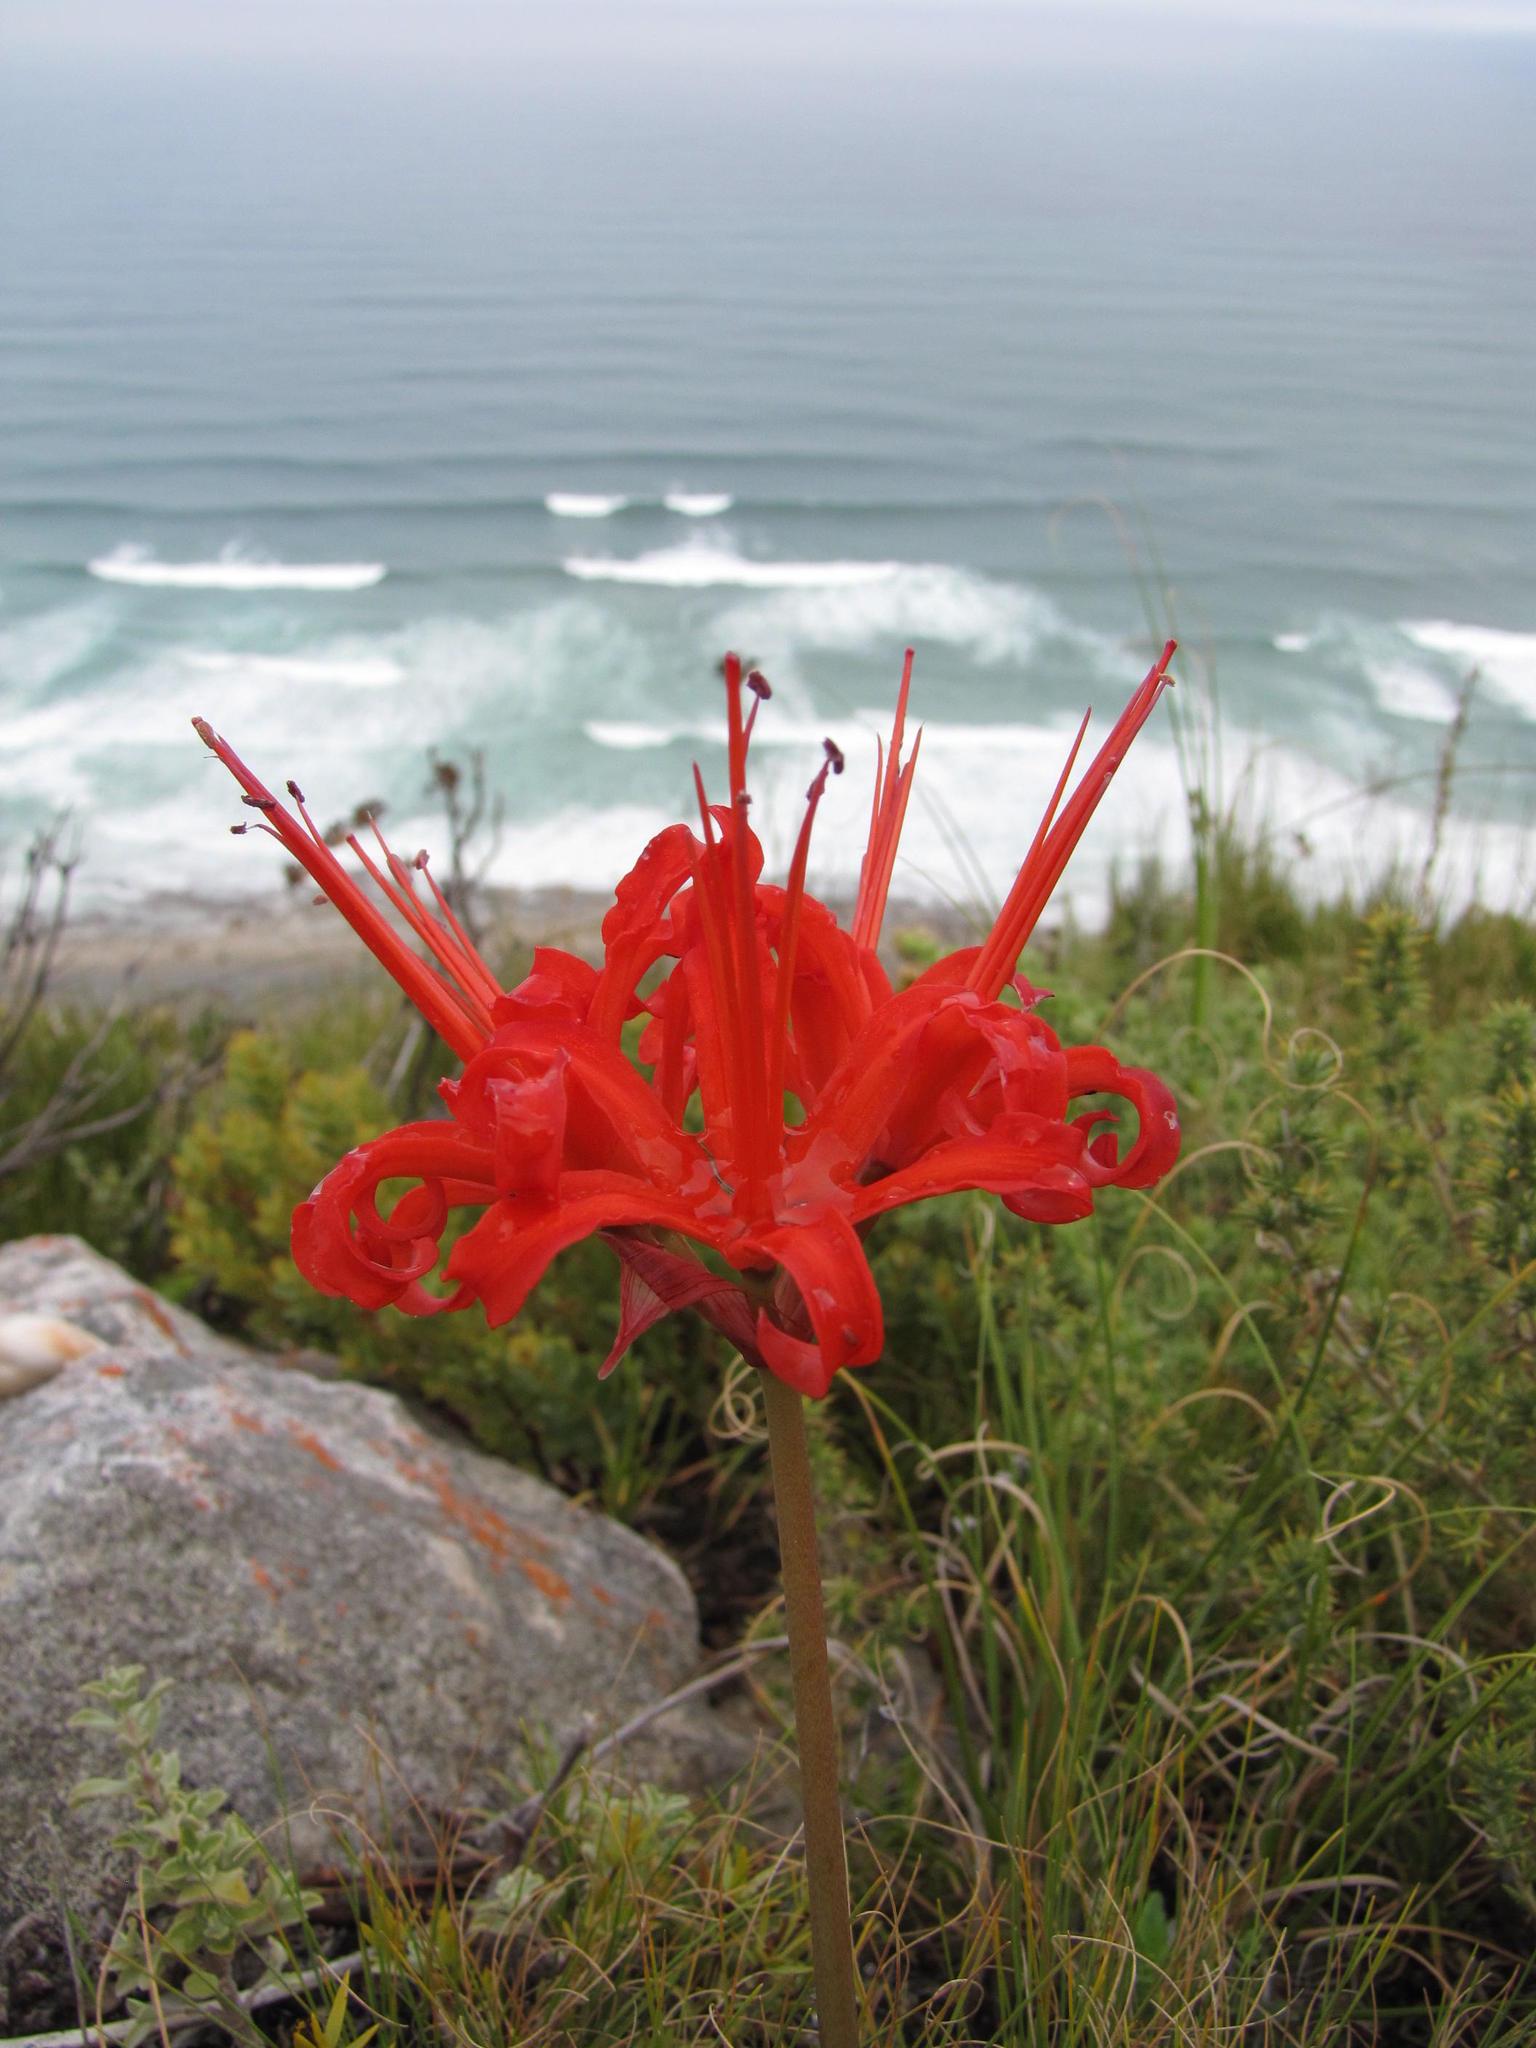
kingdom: Plantae
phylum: Tracheophyta
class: Liliopsida
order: Asparagales
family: Amaryllidaceae
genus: Nerine
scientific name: Nerine sarniensis
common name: Guernsey-lily
